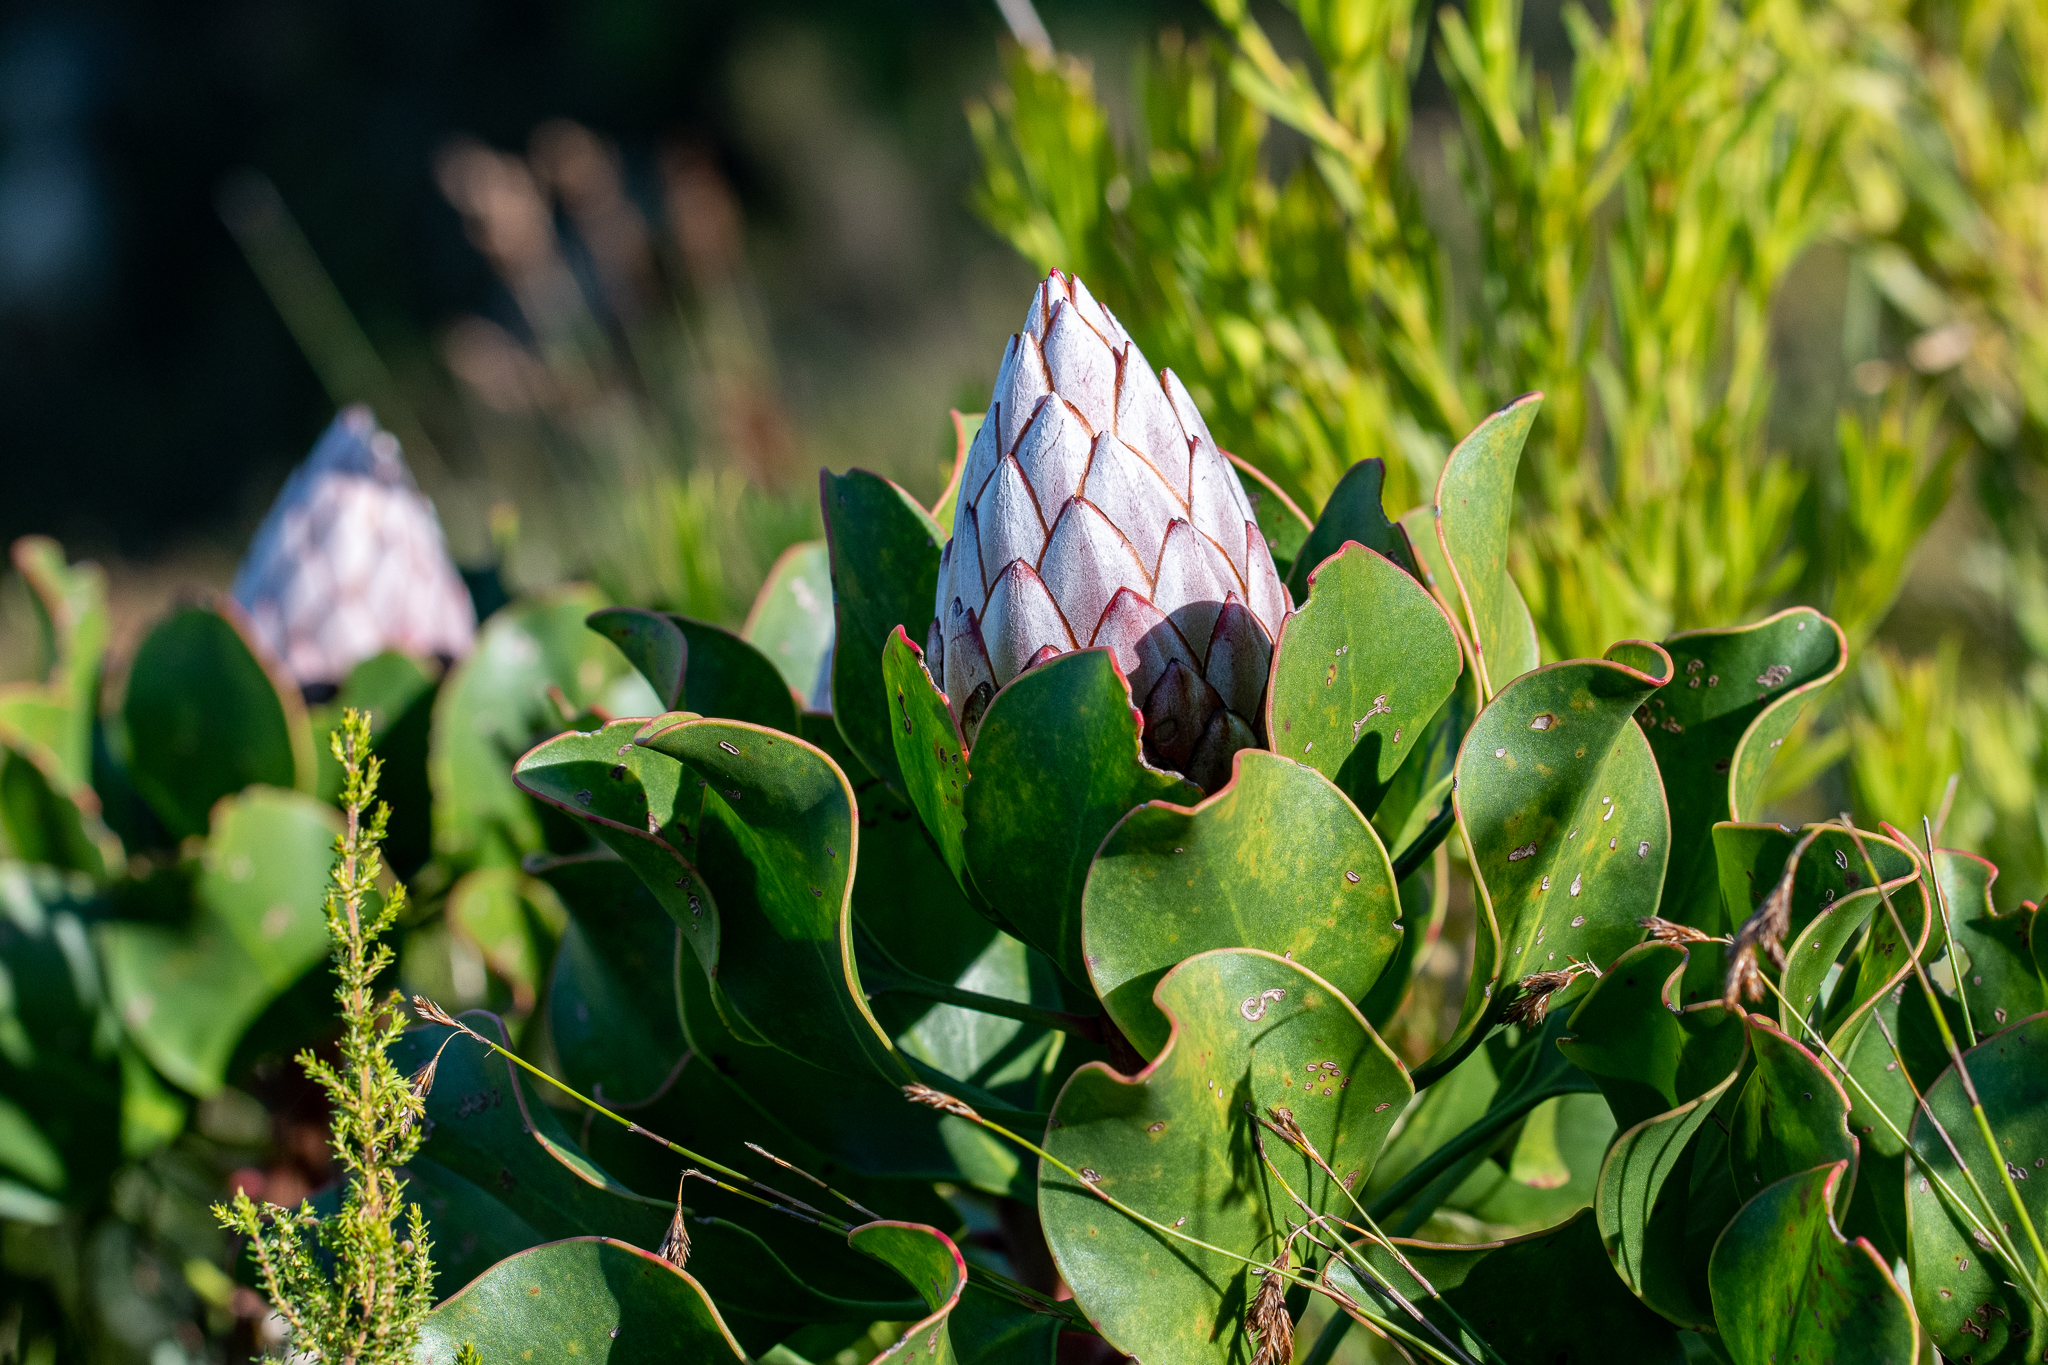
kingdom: Plantae
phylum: Tracheophyta
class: Magnoliopsida
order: Proteales
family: Proteaceae
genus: Protea
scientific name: Protea cynaroides
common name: King protea
